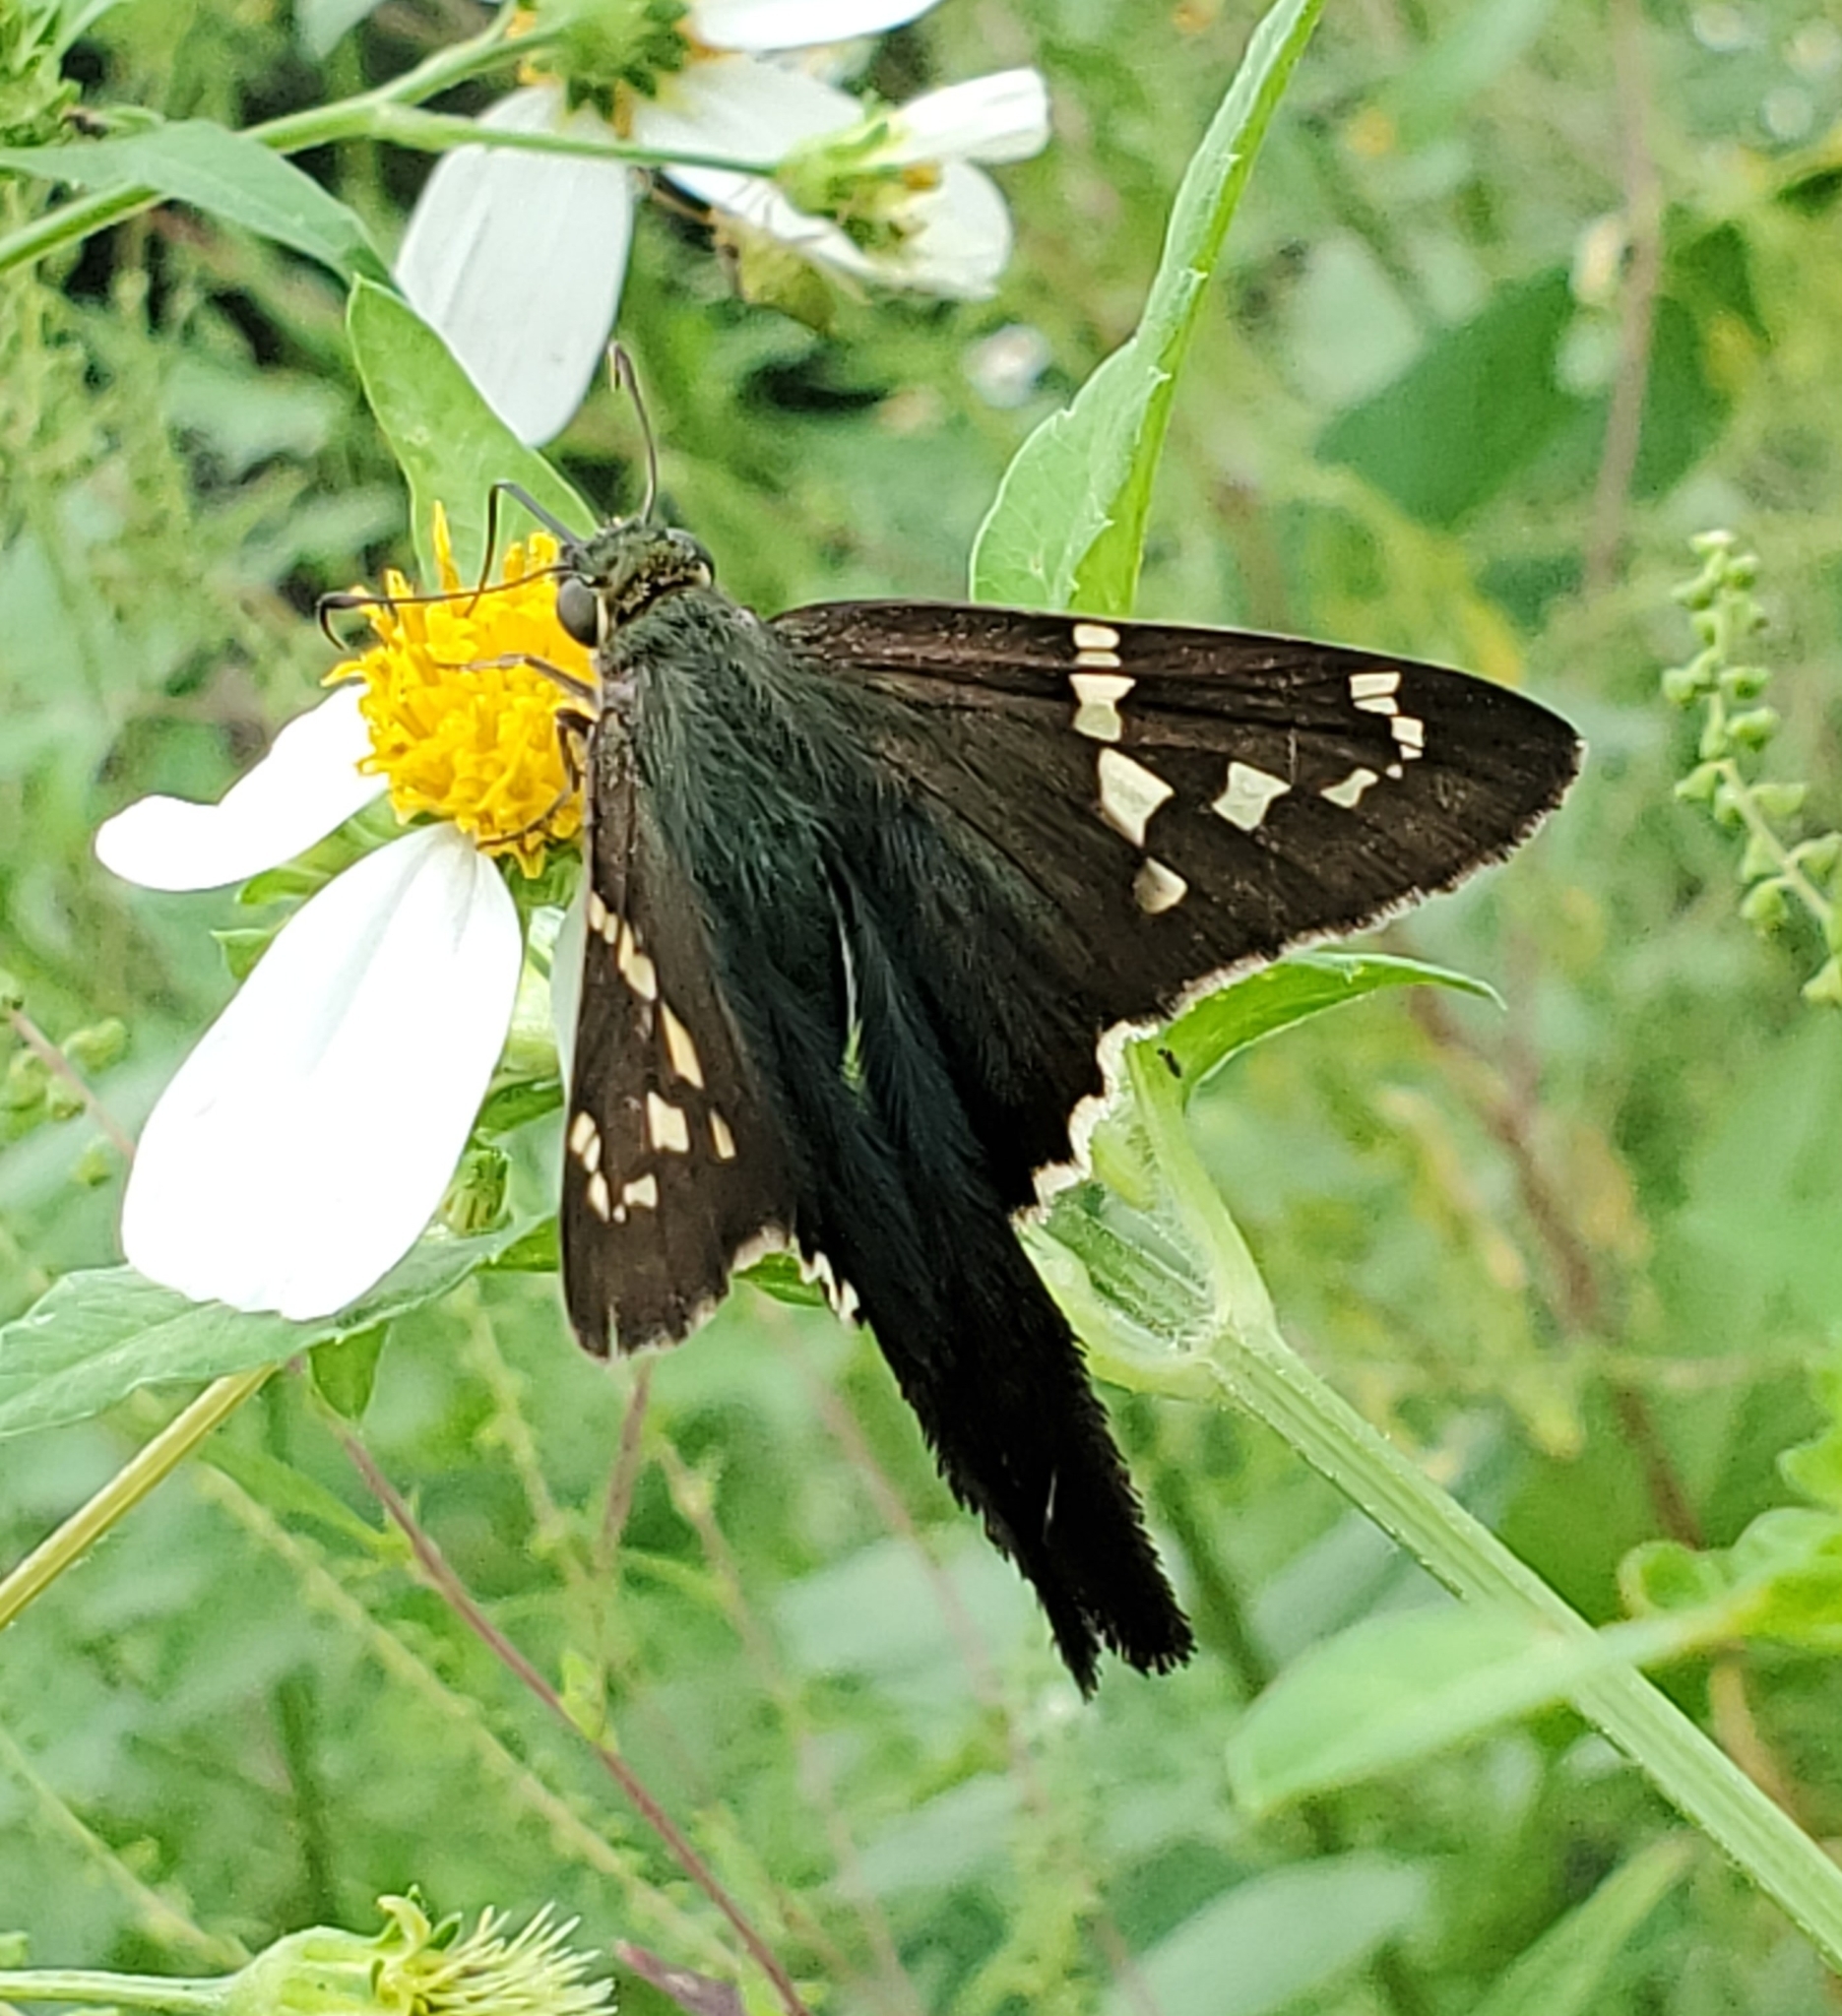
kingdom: Animalia
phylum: Arthropoda
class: Insecta
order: Lepidoptera
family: Hesperiidae
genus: Urbanus
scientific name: Urbanus proteus
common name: Long-tailed skipper
